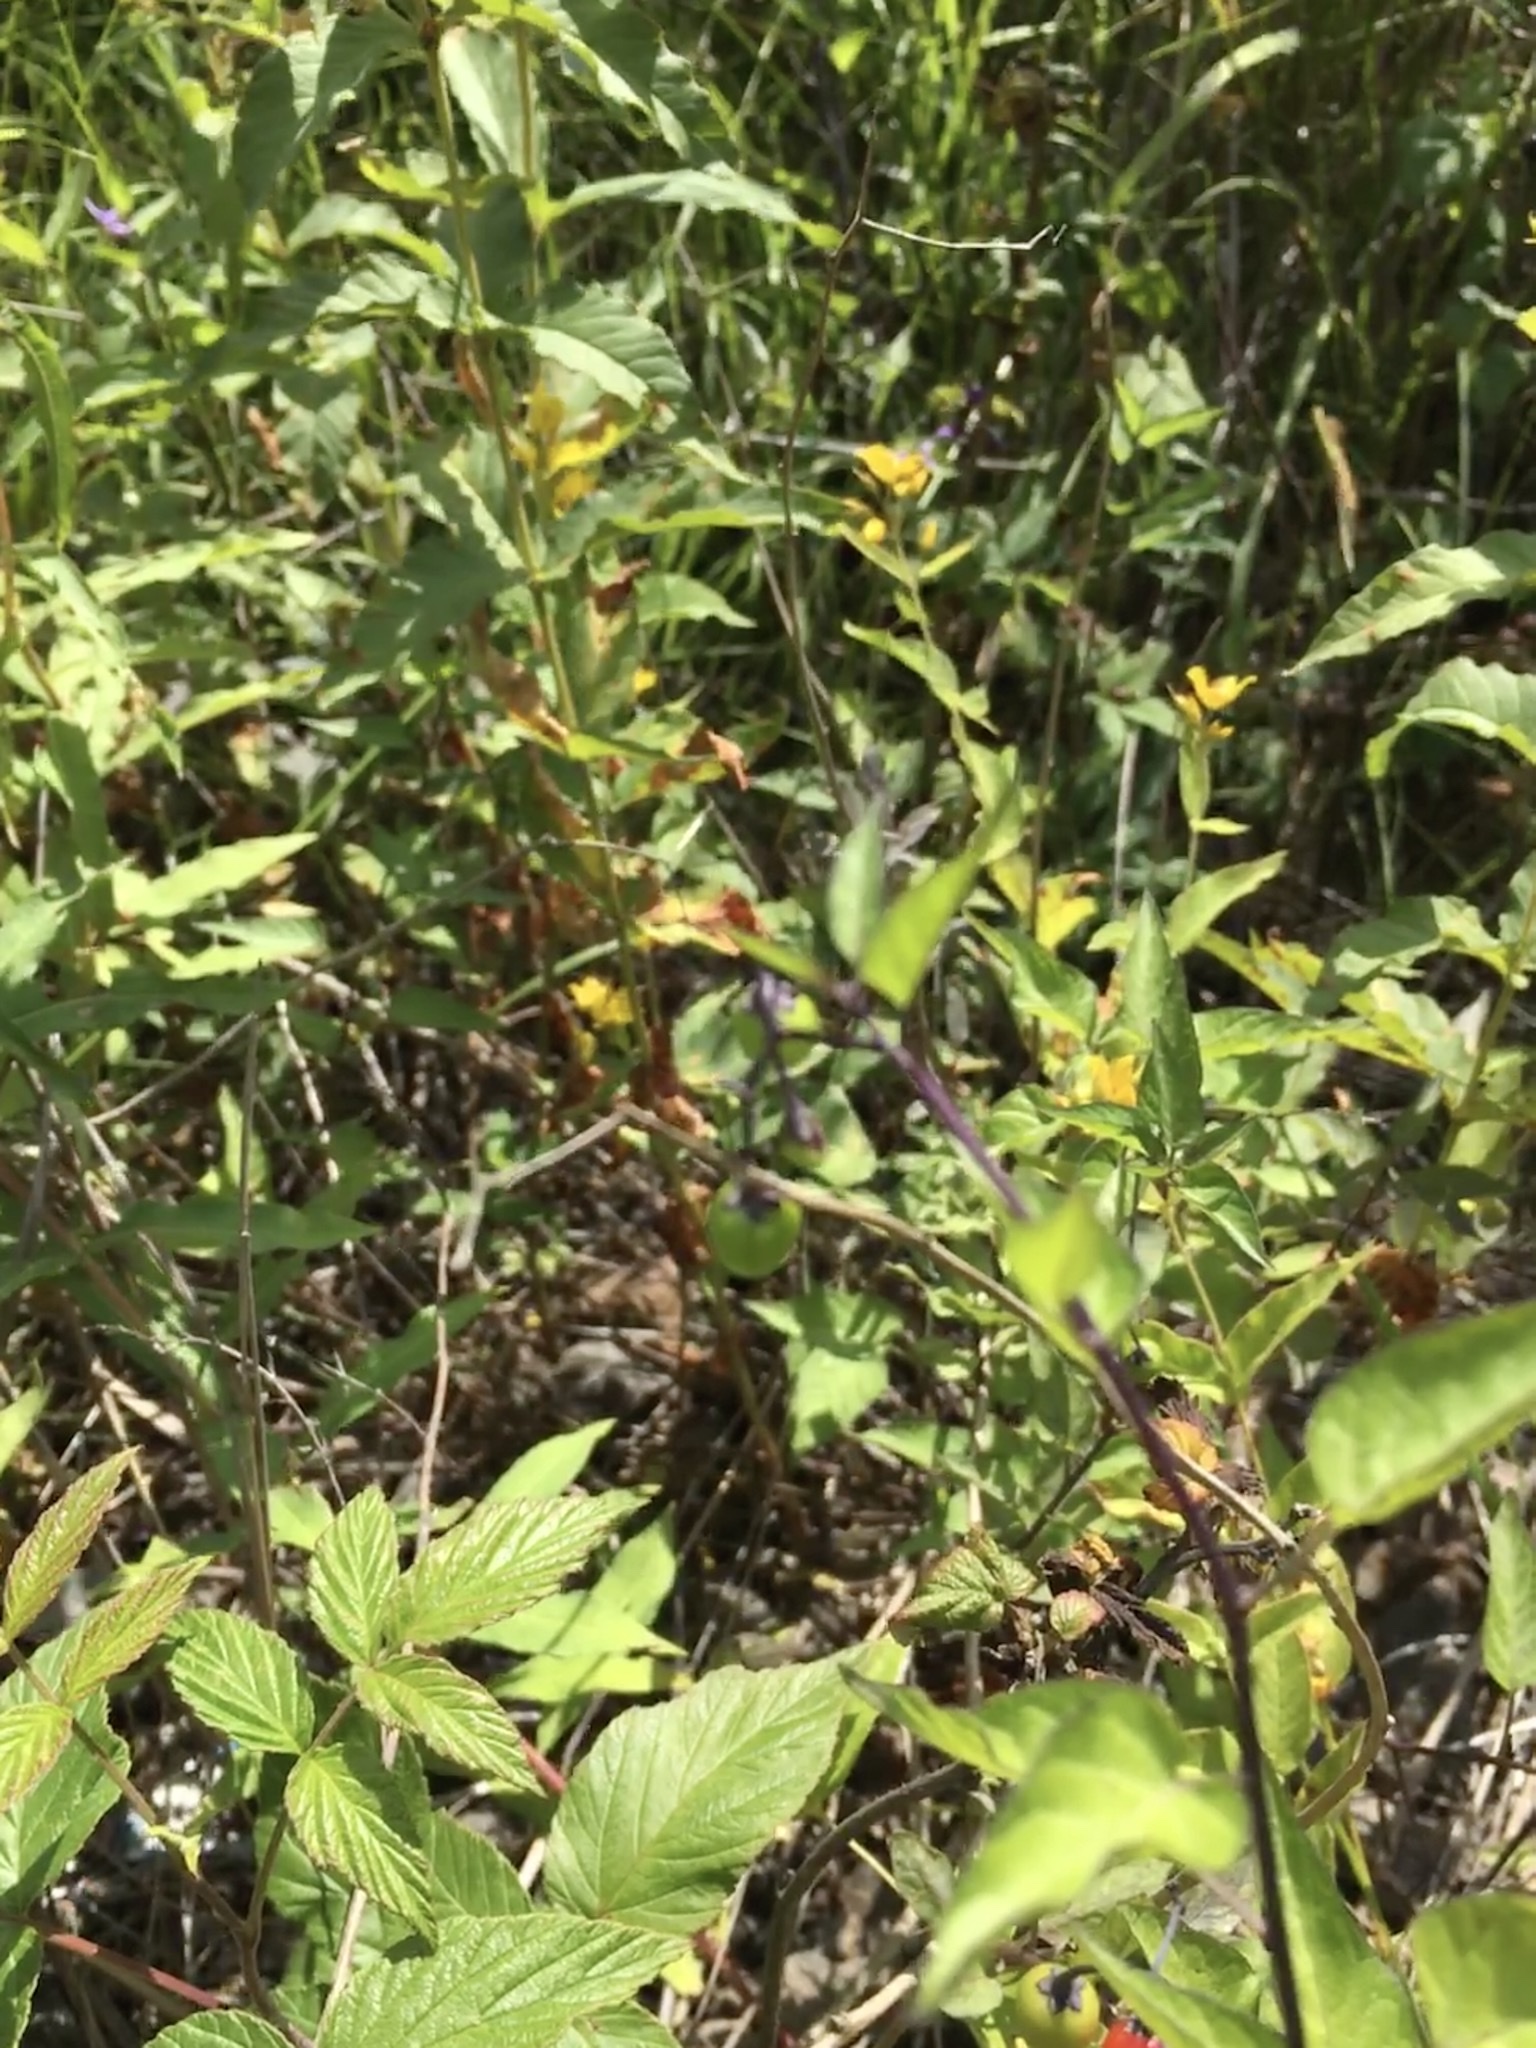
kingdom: Plantae
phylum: Tracheophyta
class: Magnoliopsida
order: Solanales
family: Solanaceae
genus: Solanum
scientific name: Solanum dulcamara
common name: Climbing nightshade
